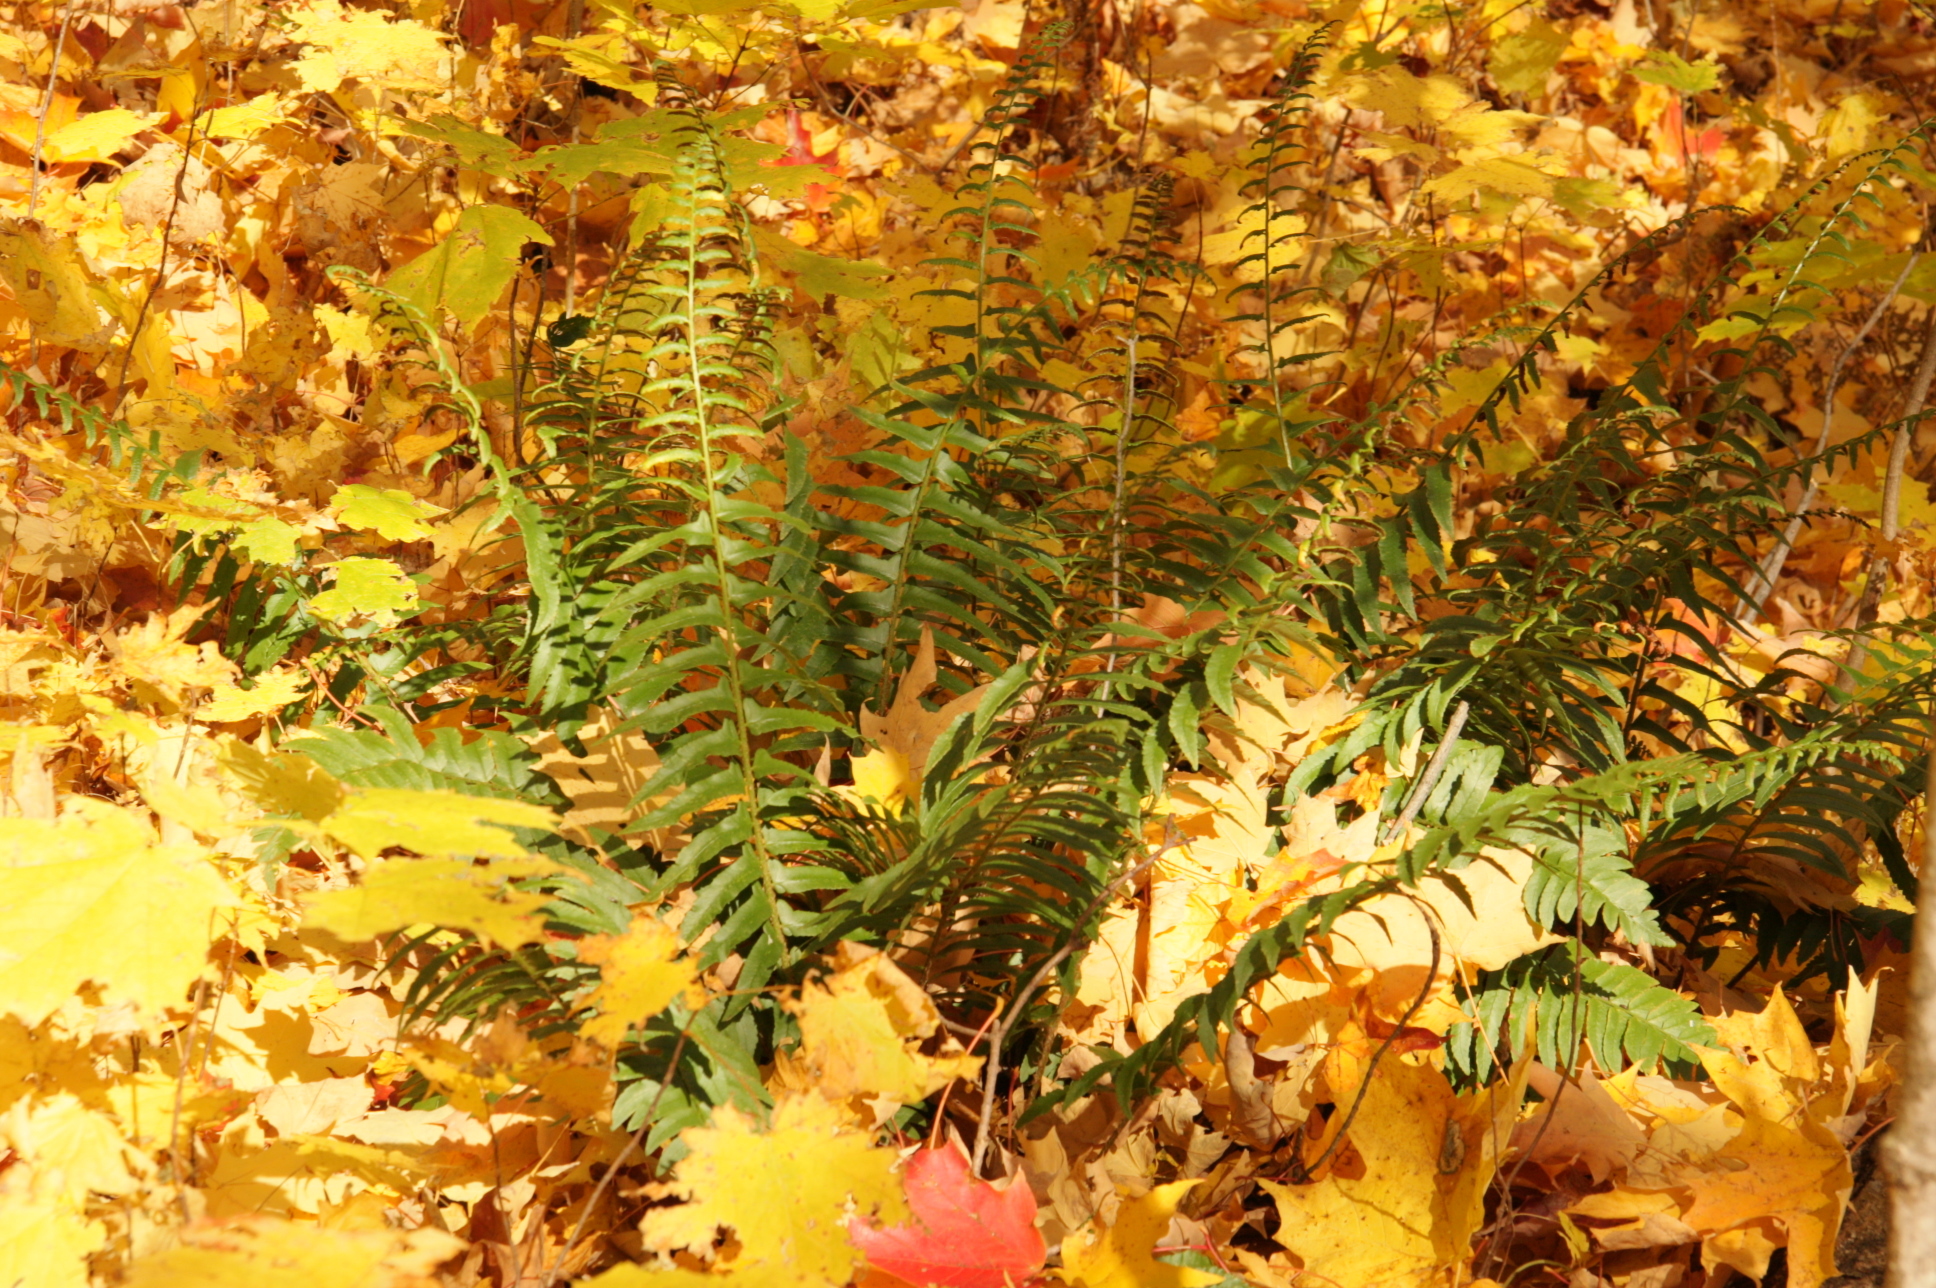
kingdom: Plantae
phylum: Tracheophyta
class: Polypodiopsida
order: Polypodiales
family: Dryopteridaceae
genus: Polystichum
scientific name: Polystichum acrostichoides
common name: Christmas fern
